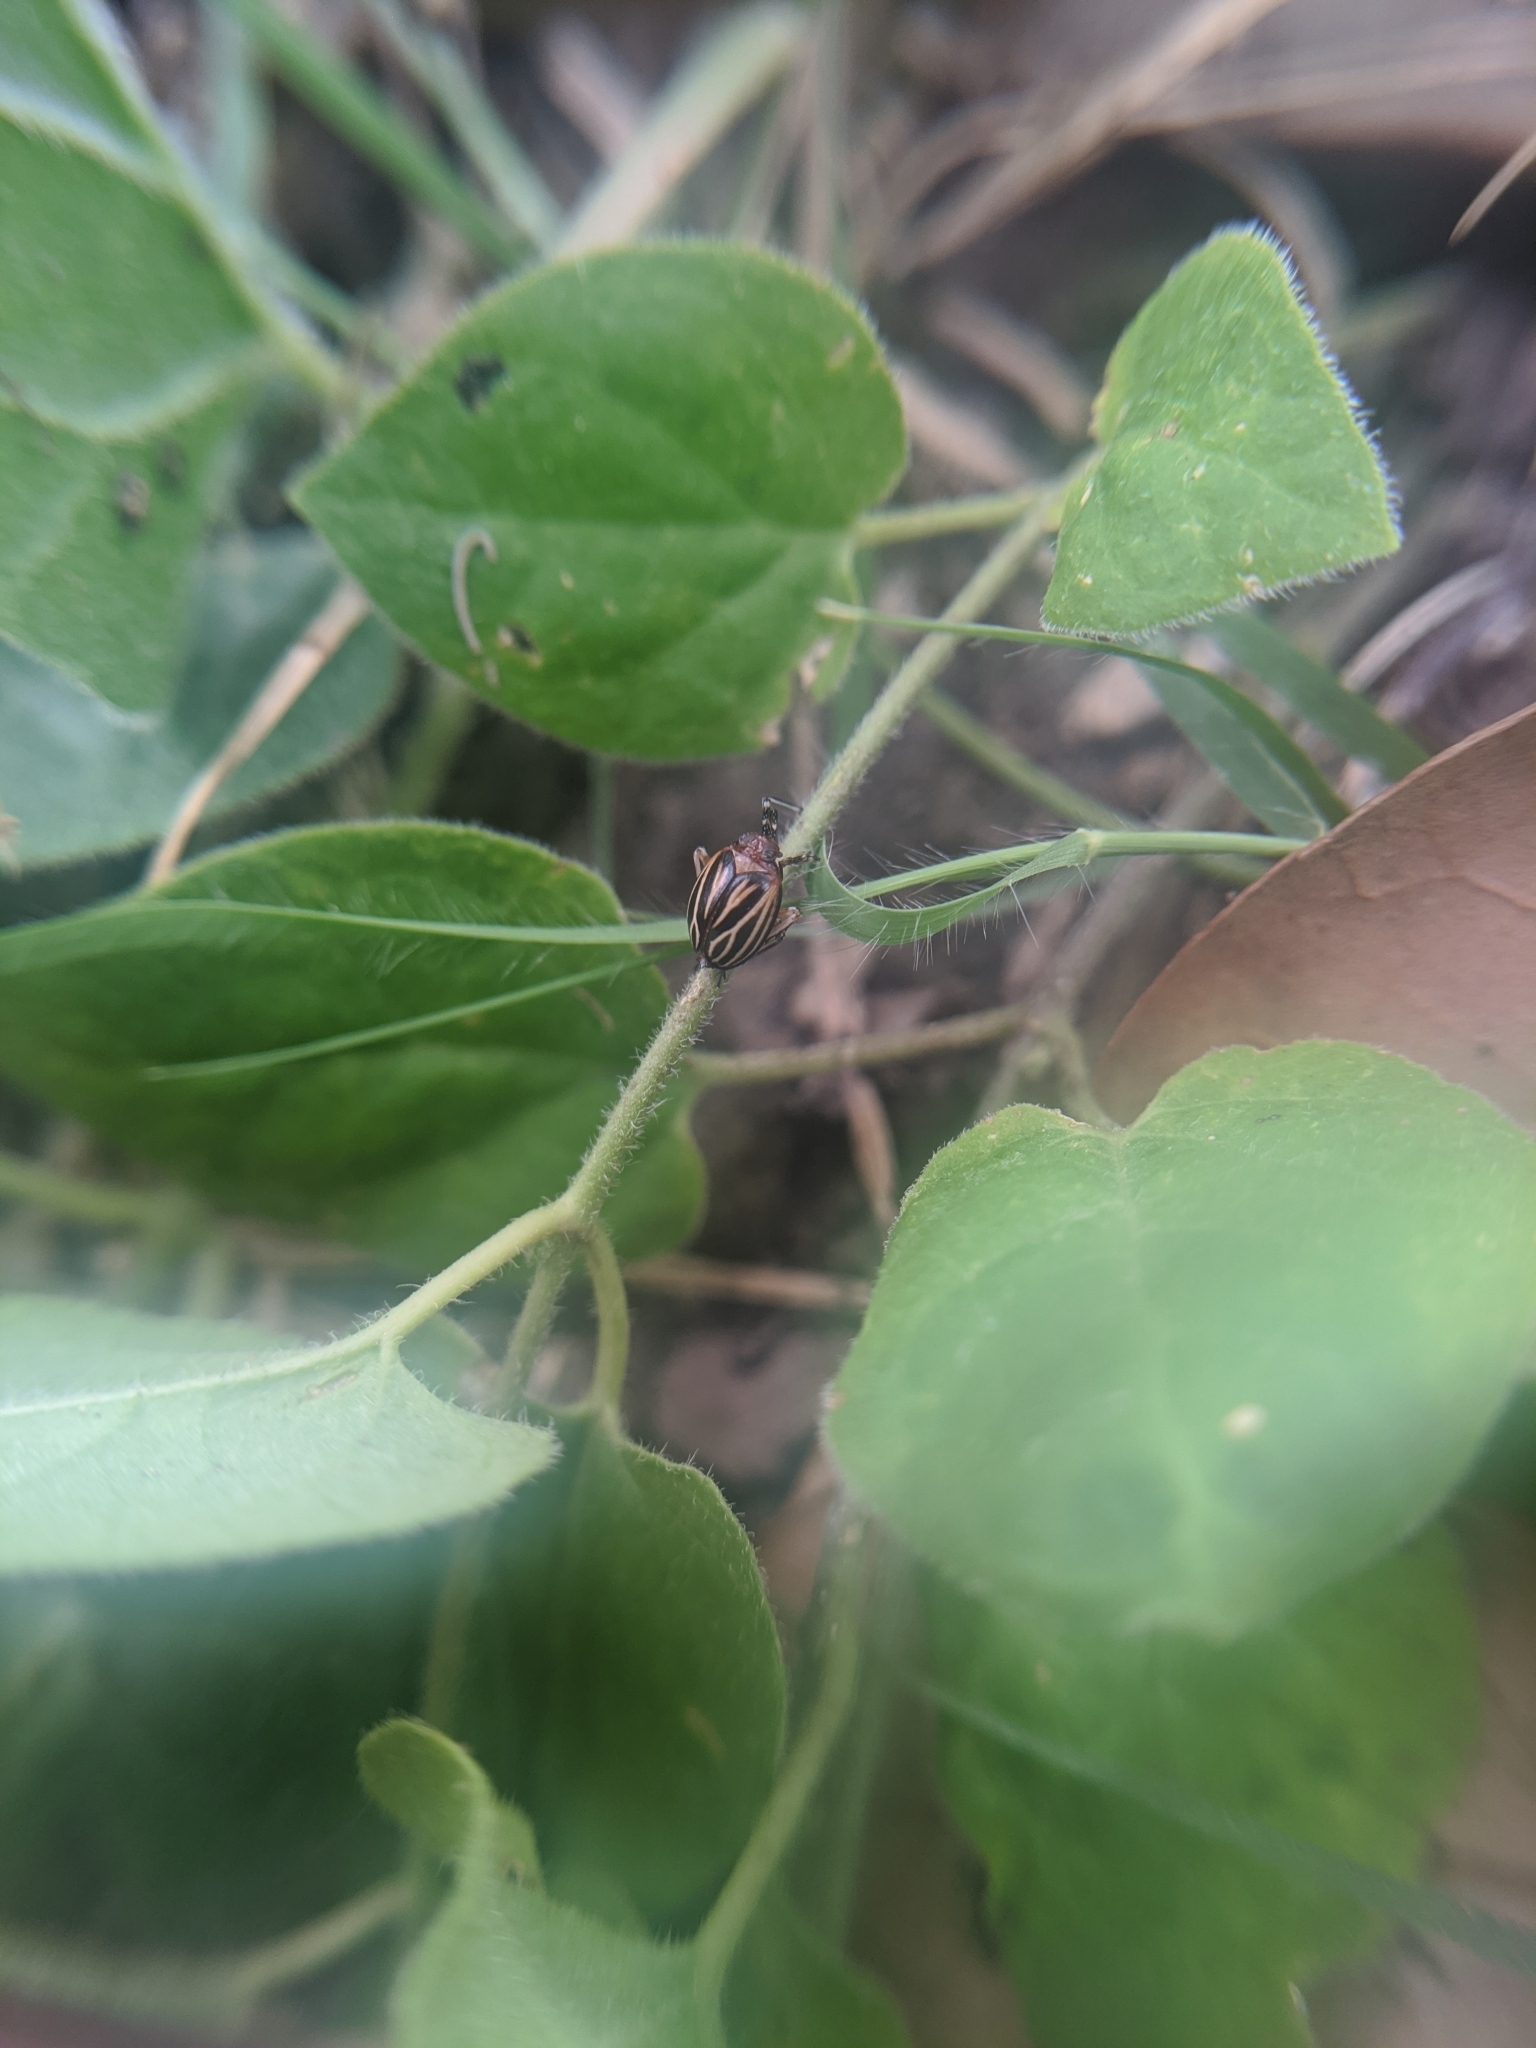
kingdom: Animalia
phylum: Arthropoda
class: Insecta
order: Hemiptera
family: Achilidae
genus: Isodaemon
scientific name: Isodaemon orontes
